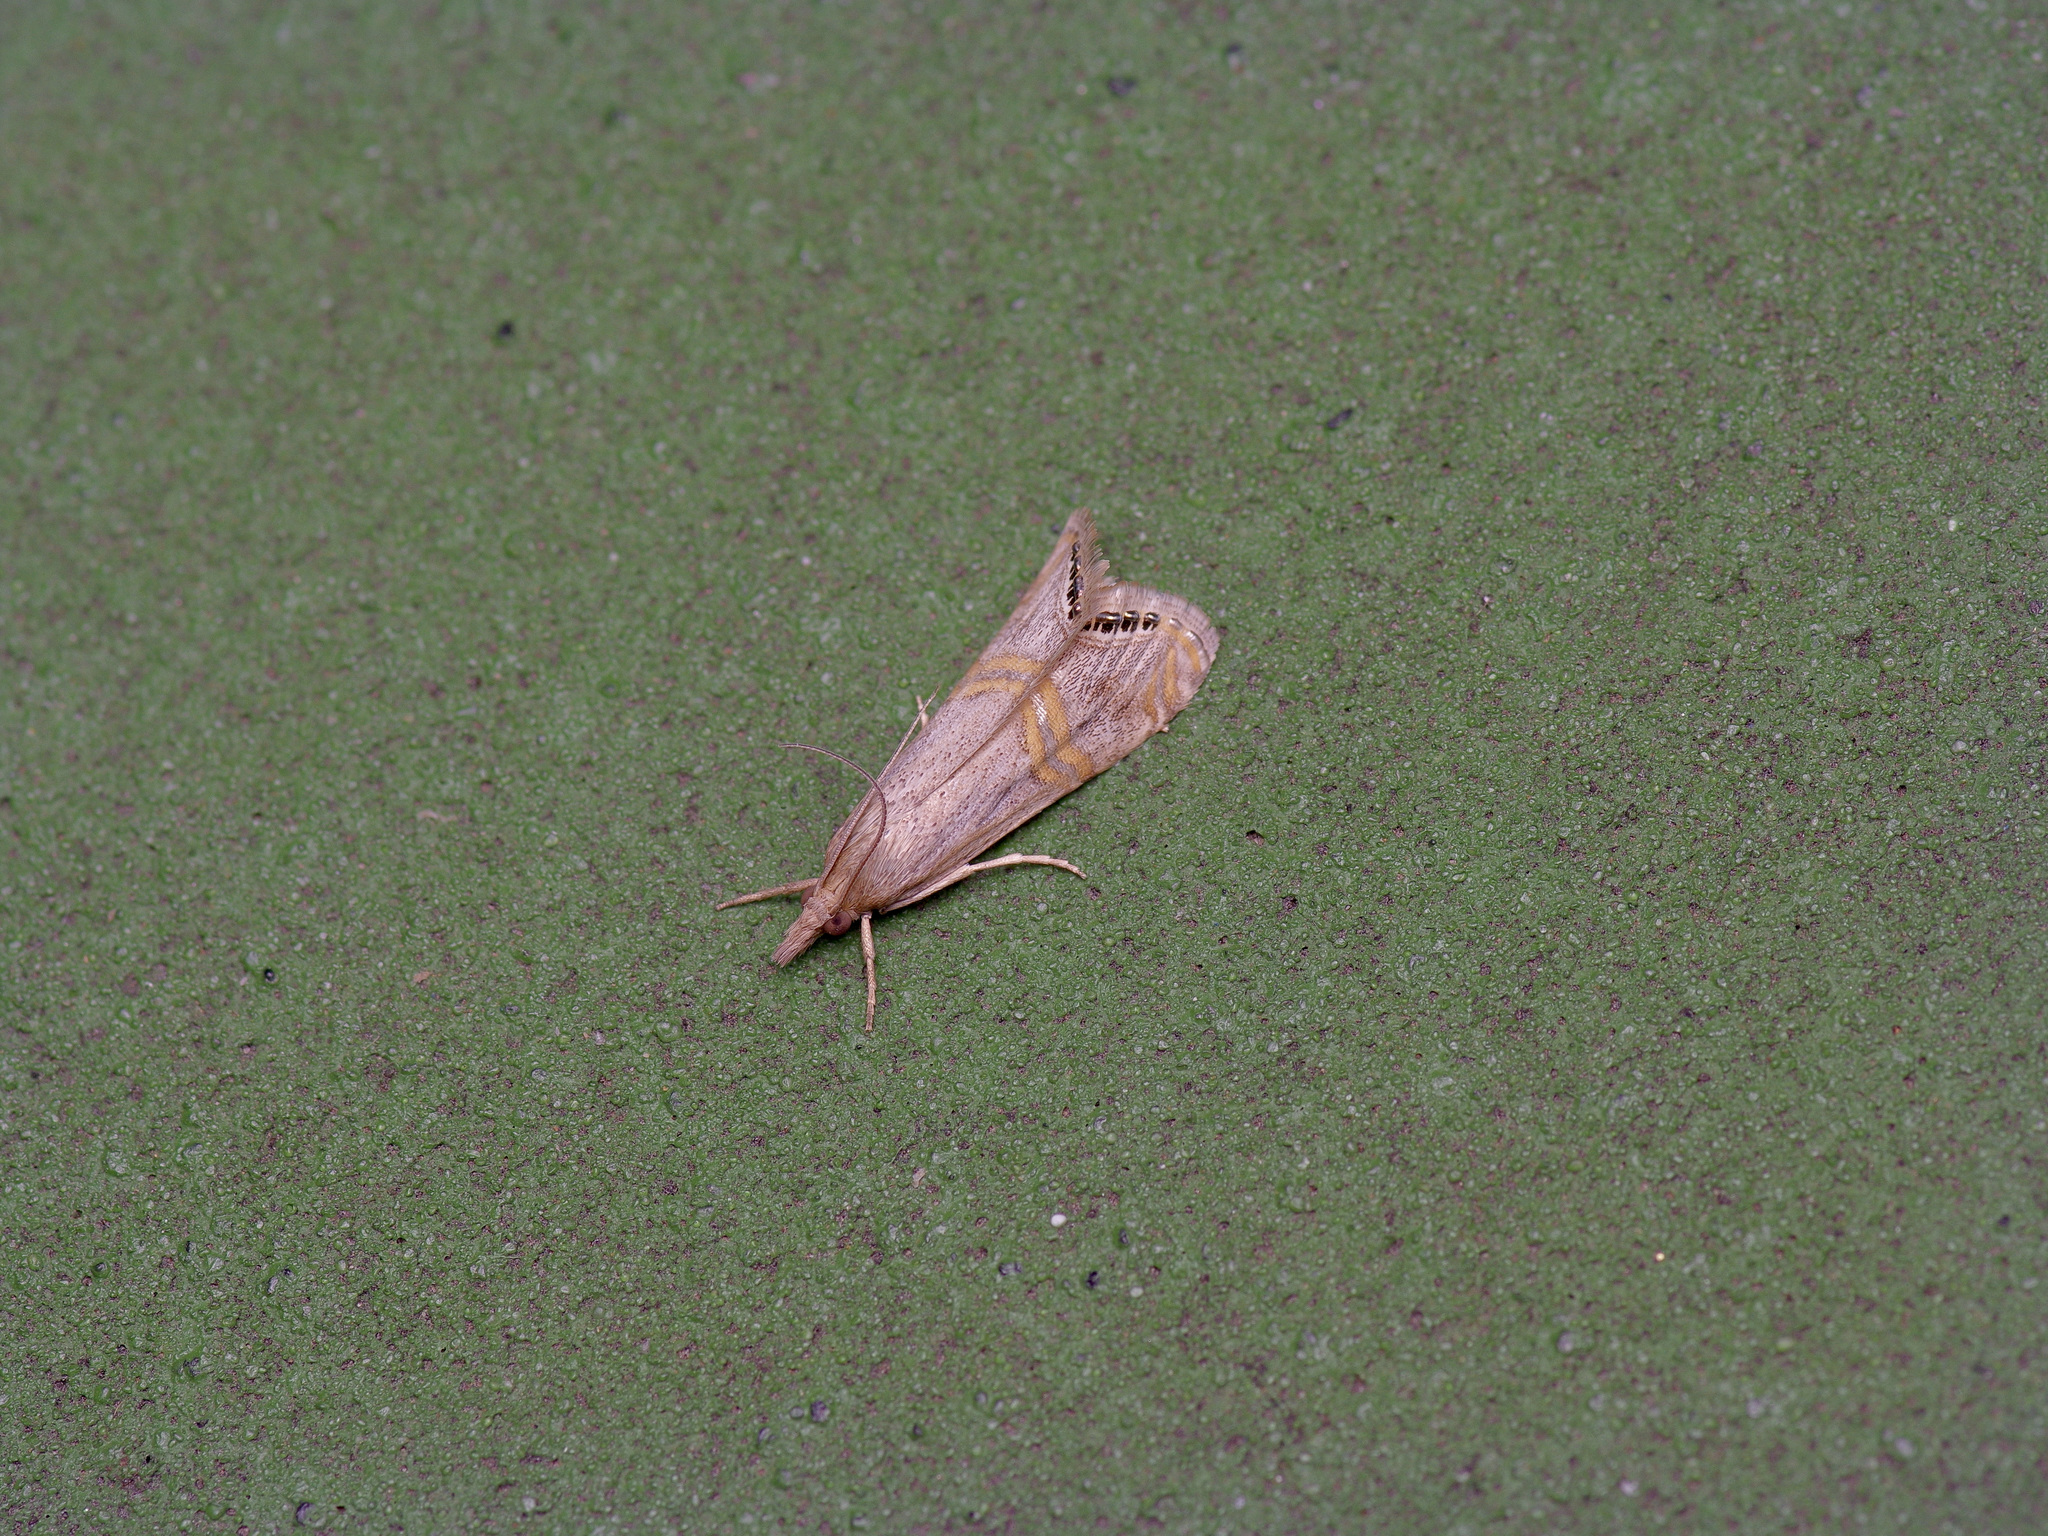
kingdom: Animalia
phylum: Arthropoda
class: Insecta
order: Lepidoptera
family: Crambidae
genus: Euchromius
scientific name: Euchromius ocellea
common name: Necklace veneer moth
